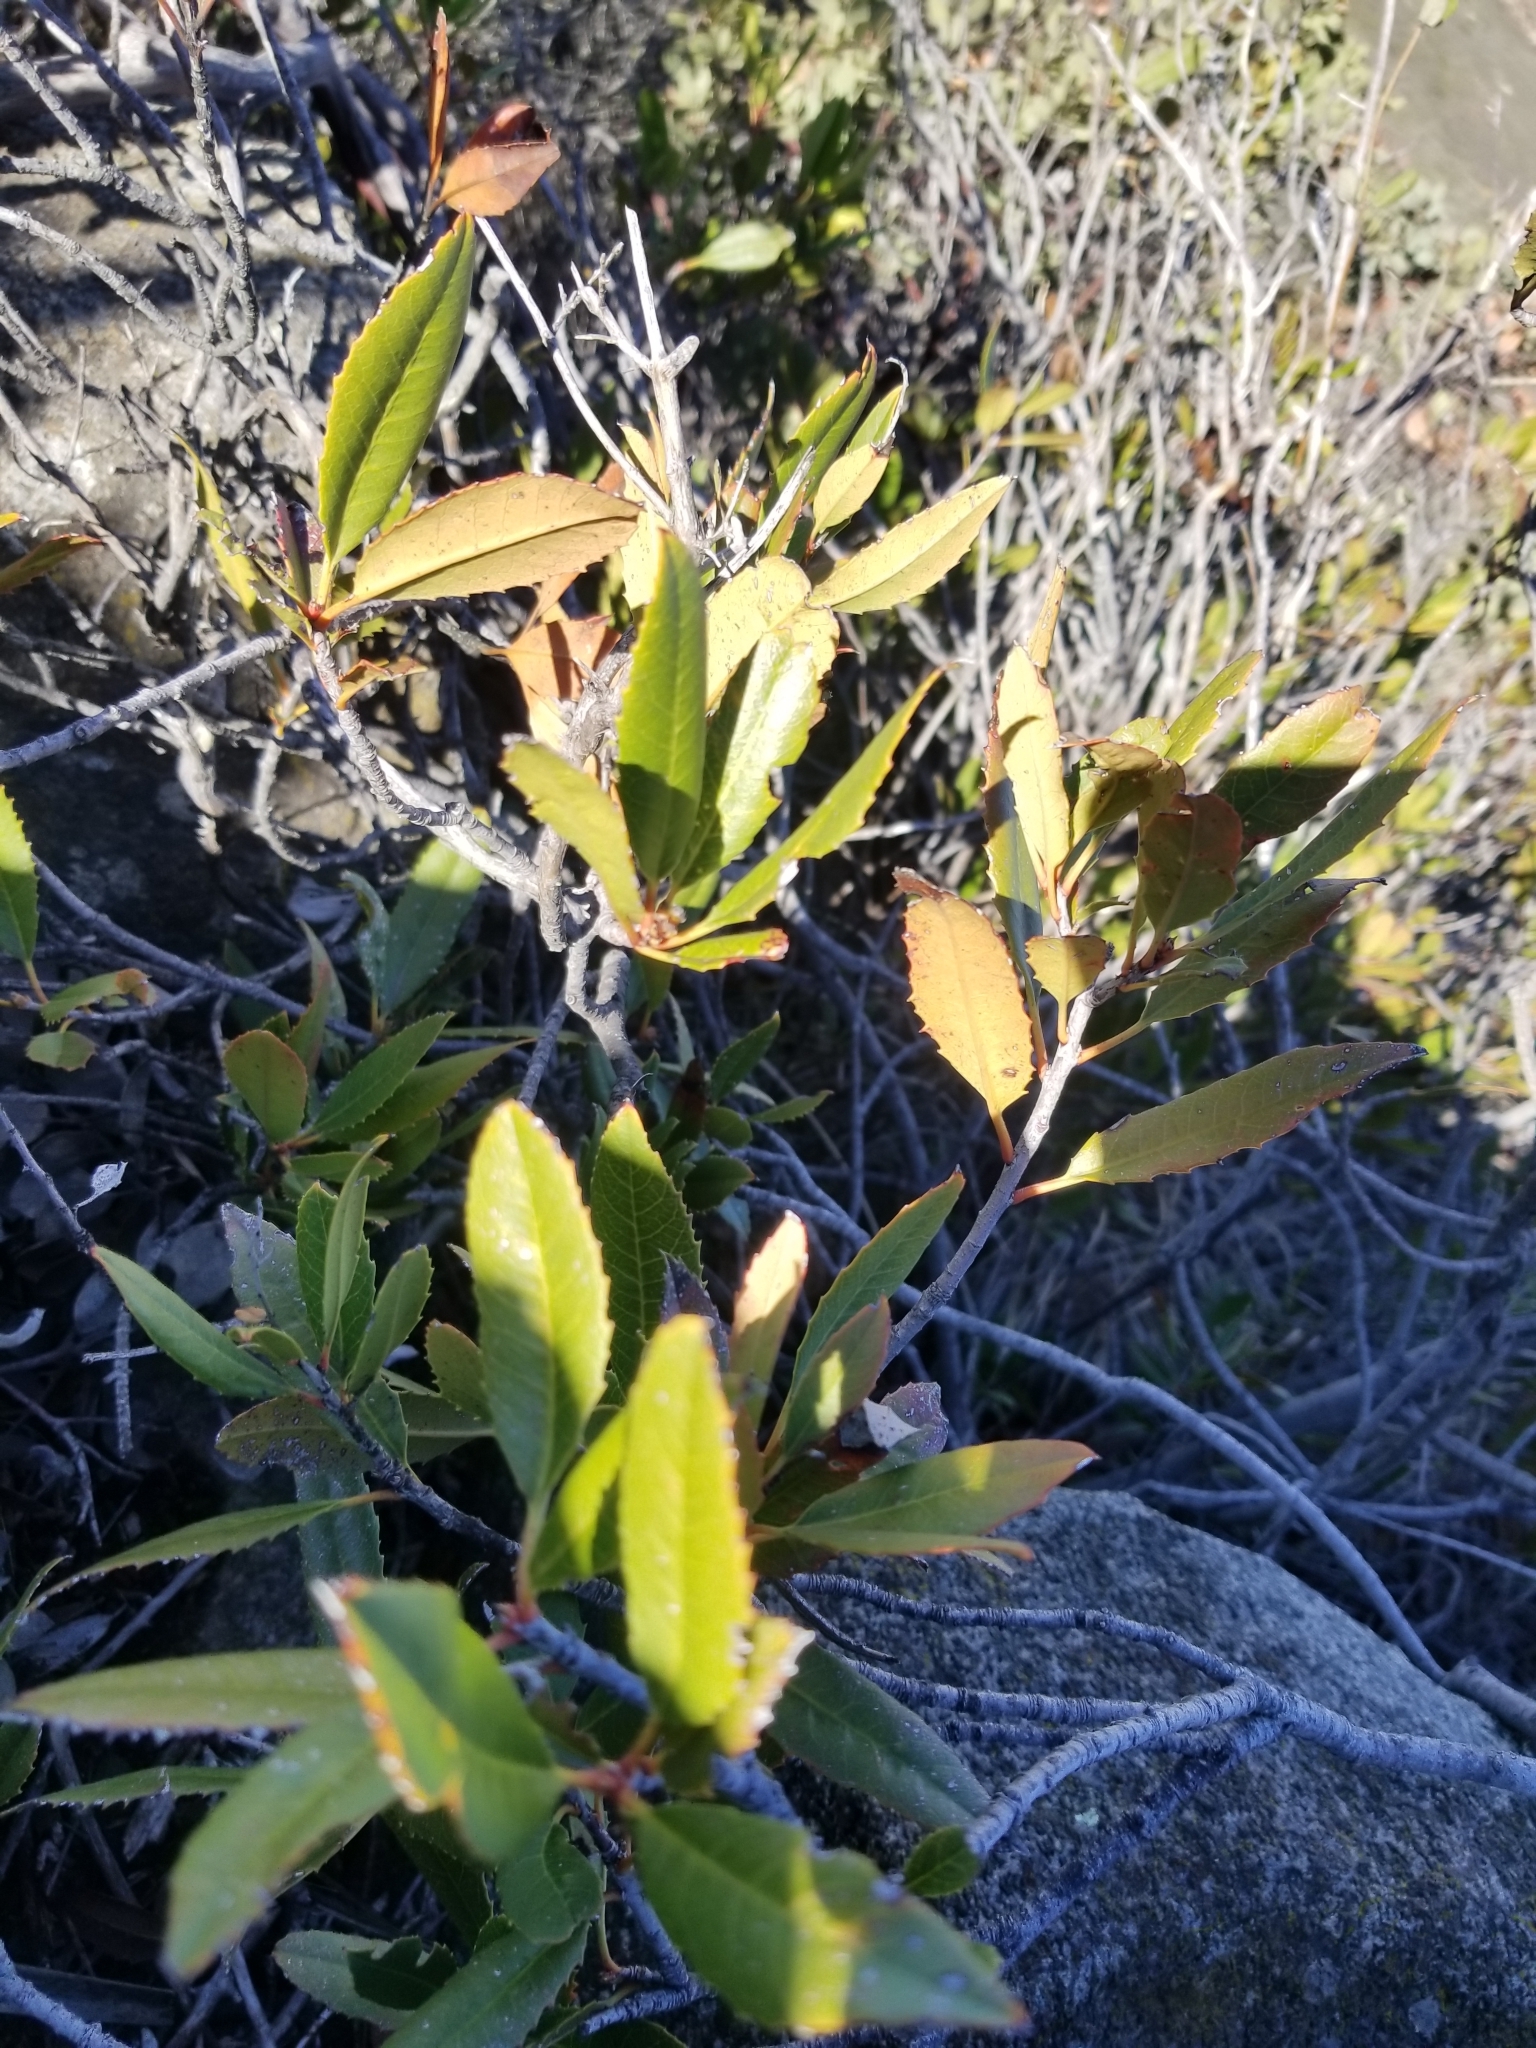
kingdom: Plantae
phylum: Tracheophyta
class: Magnoliopsida
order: Rosales
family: Rosaceae
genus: Heteromeles
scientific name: Heteromeles arbutifolia
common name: California-holly
